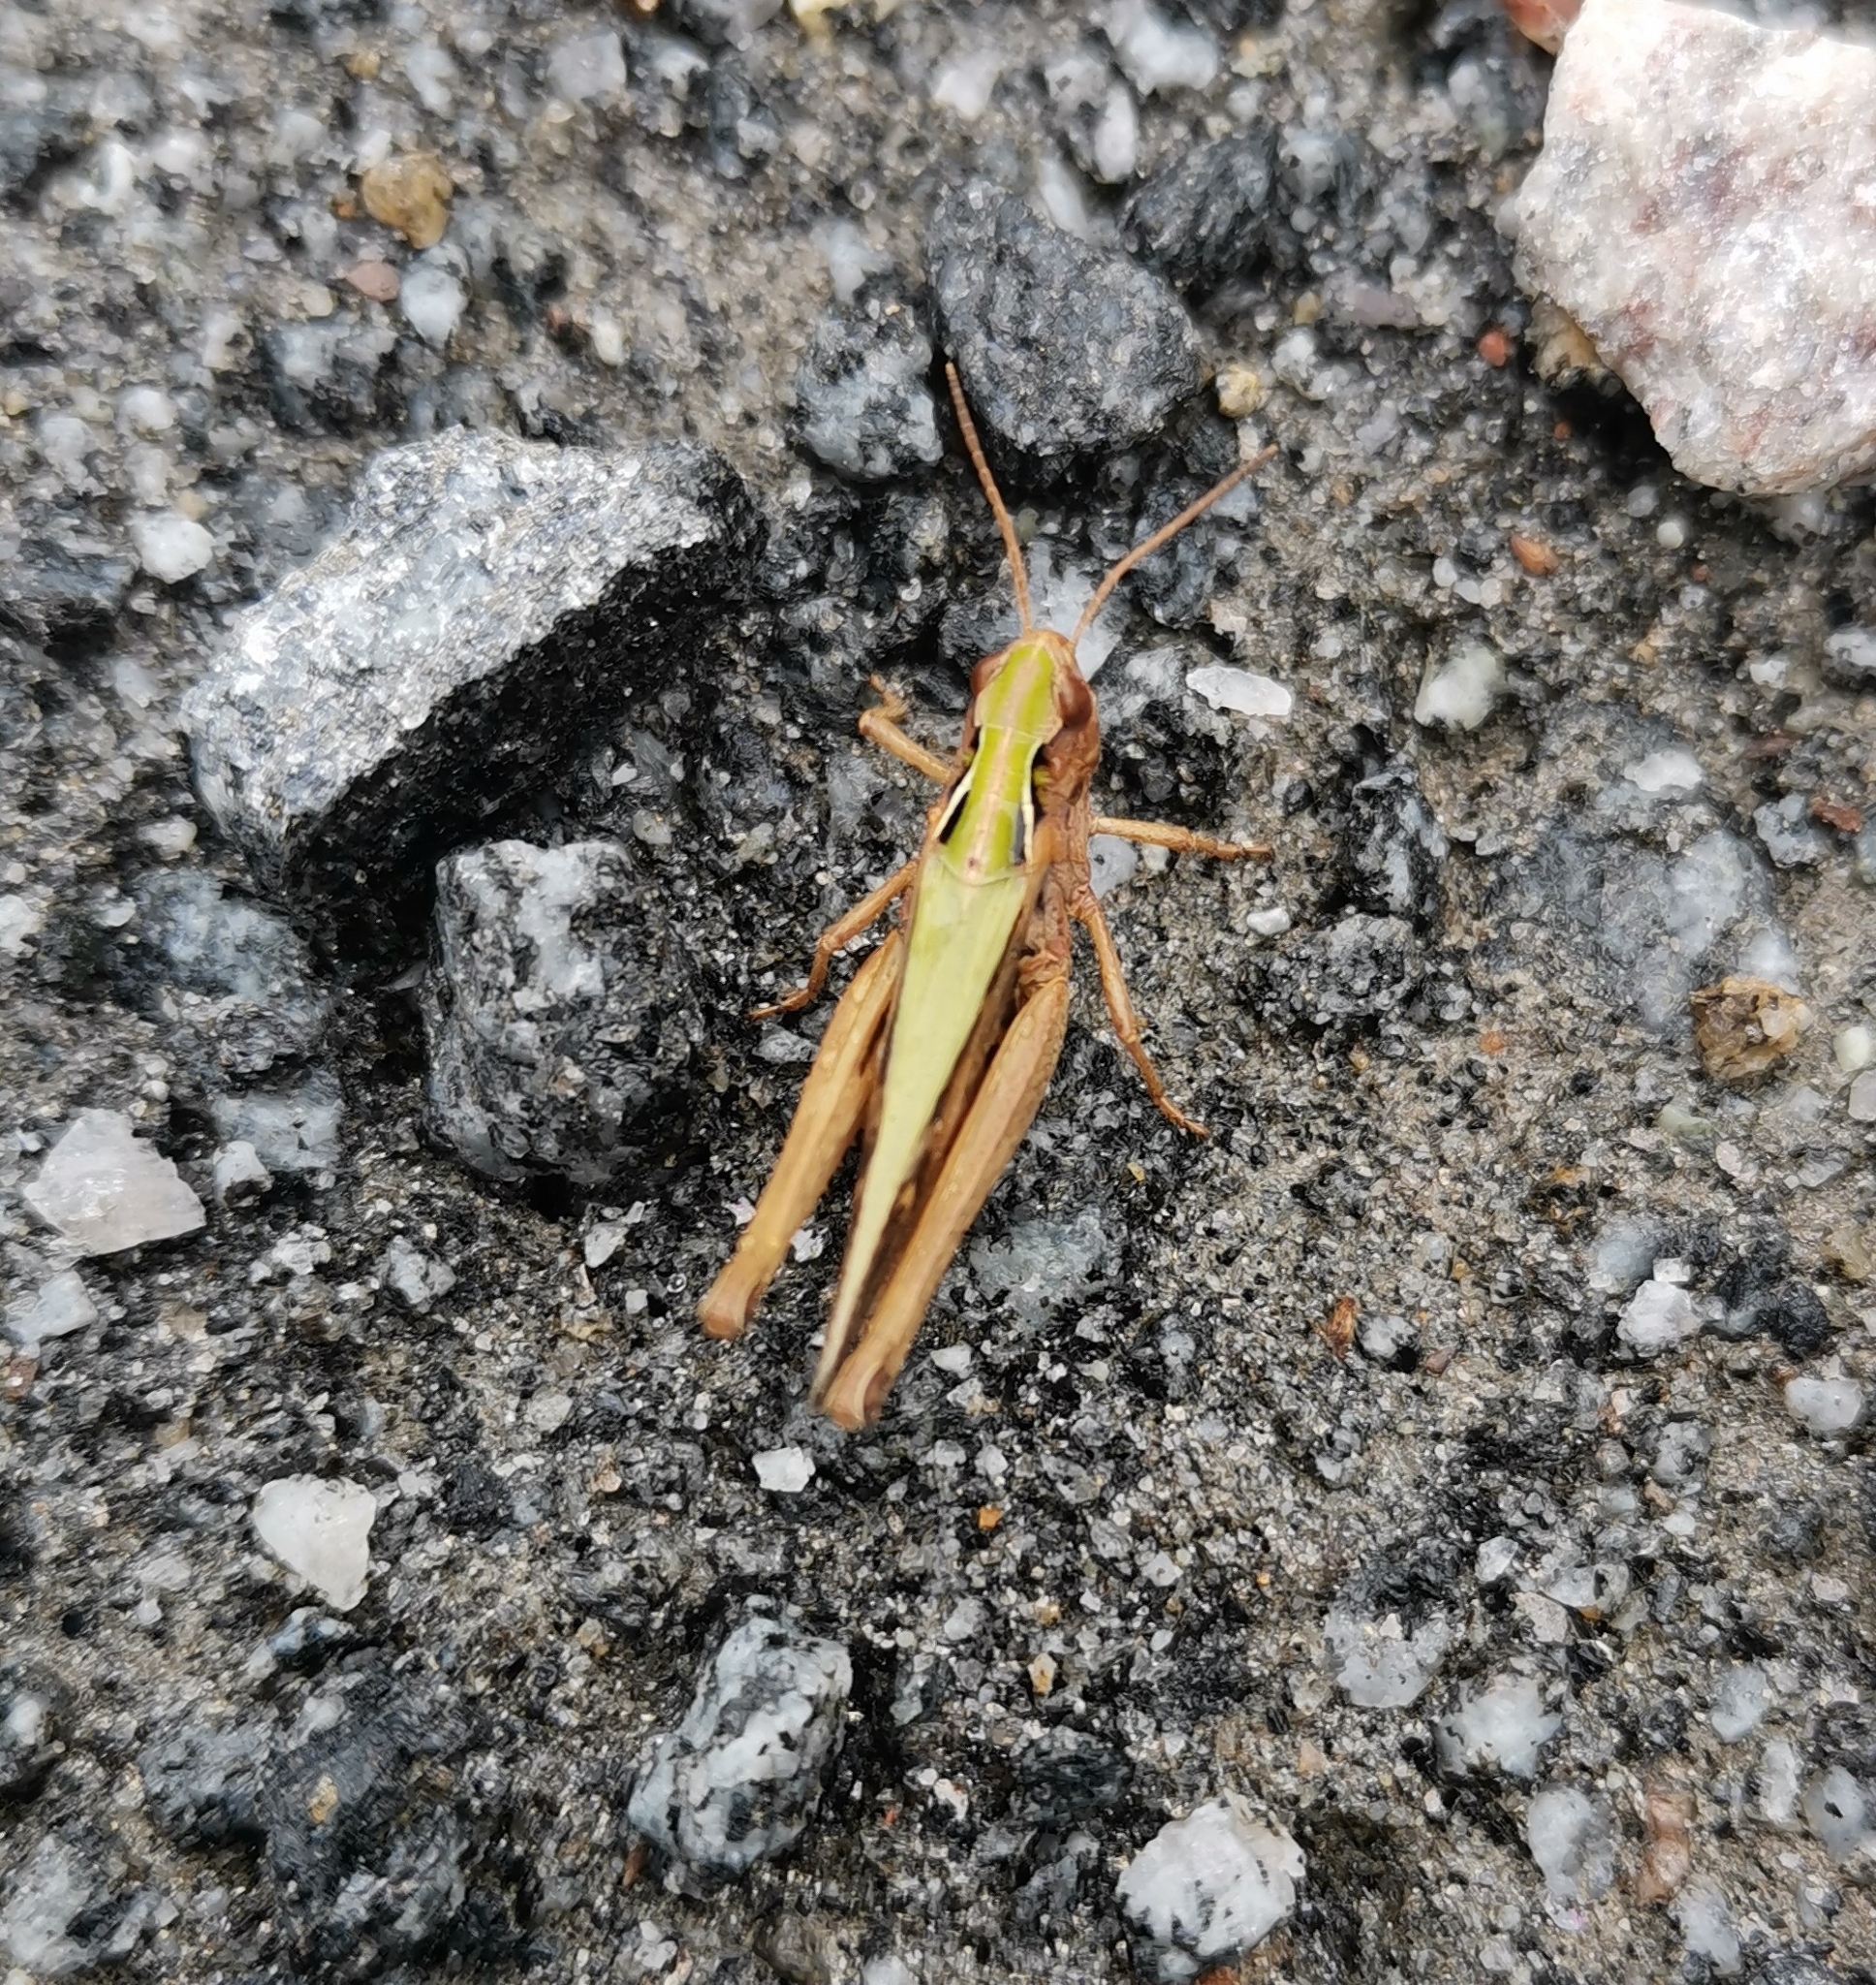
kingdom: Animalia
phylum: Arthropoda
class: Insecta
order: Orthoptera
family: Acrididae
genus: Omocestus
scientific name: Omocestus viridulus
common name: Common green grasshopper
